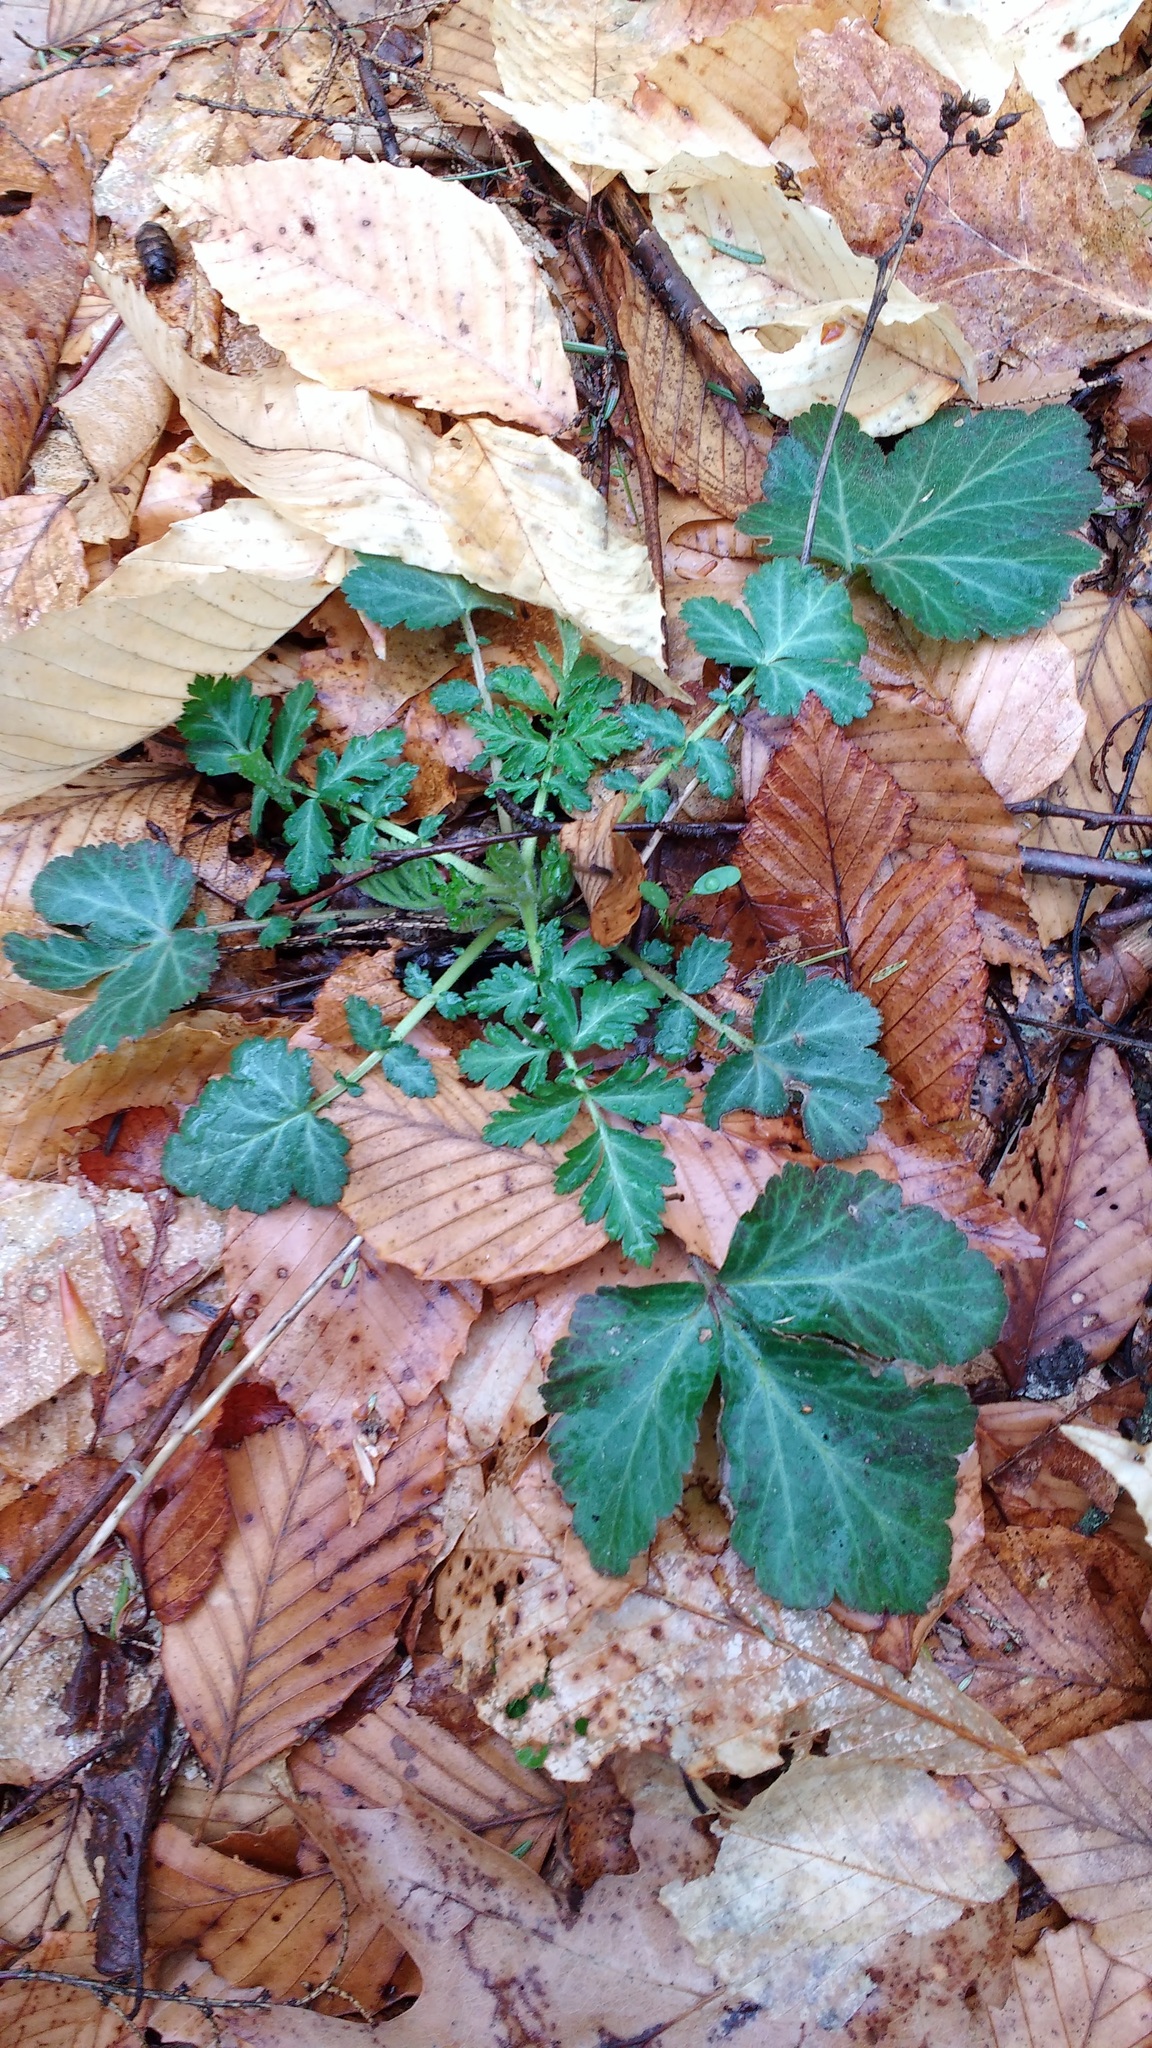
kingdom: Plantae
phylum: Tracheophyta
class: Magnoliopsida
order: Rosales
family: Rosaceae
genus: Geum
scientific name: Geum canadense
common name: White avens
